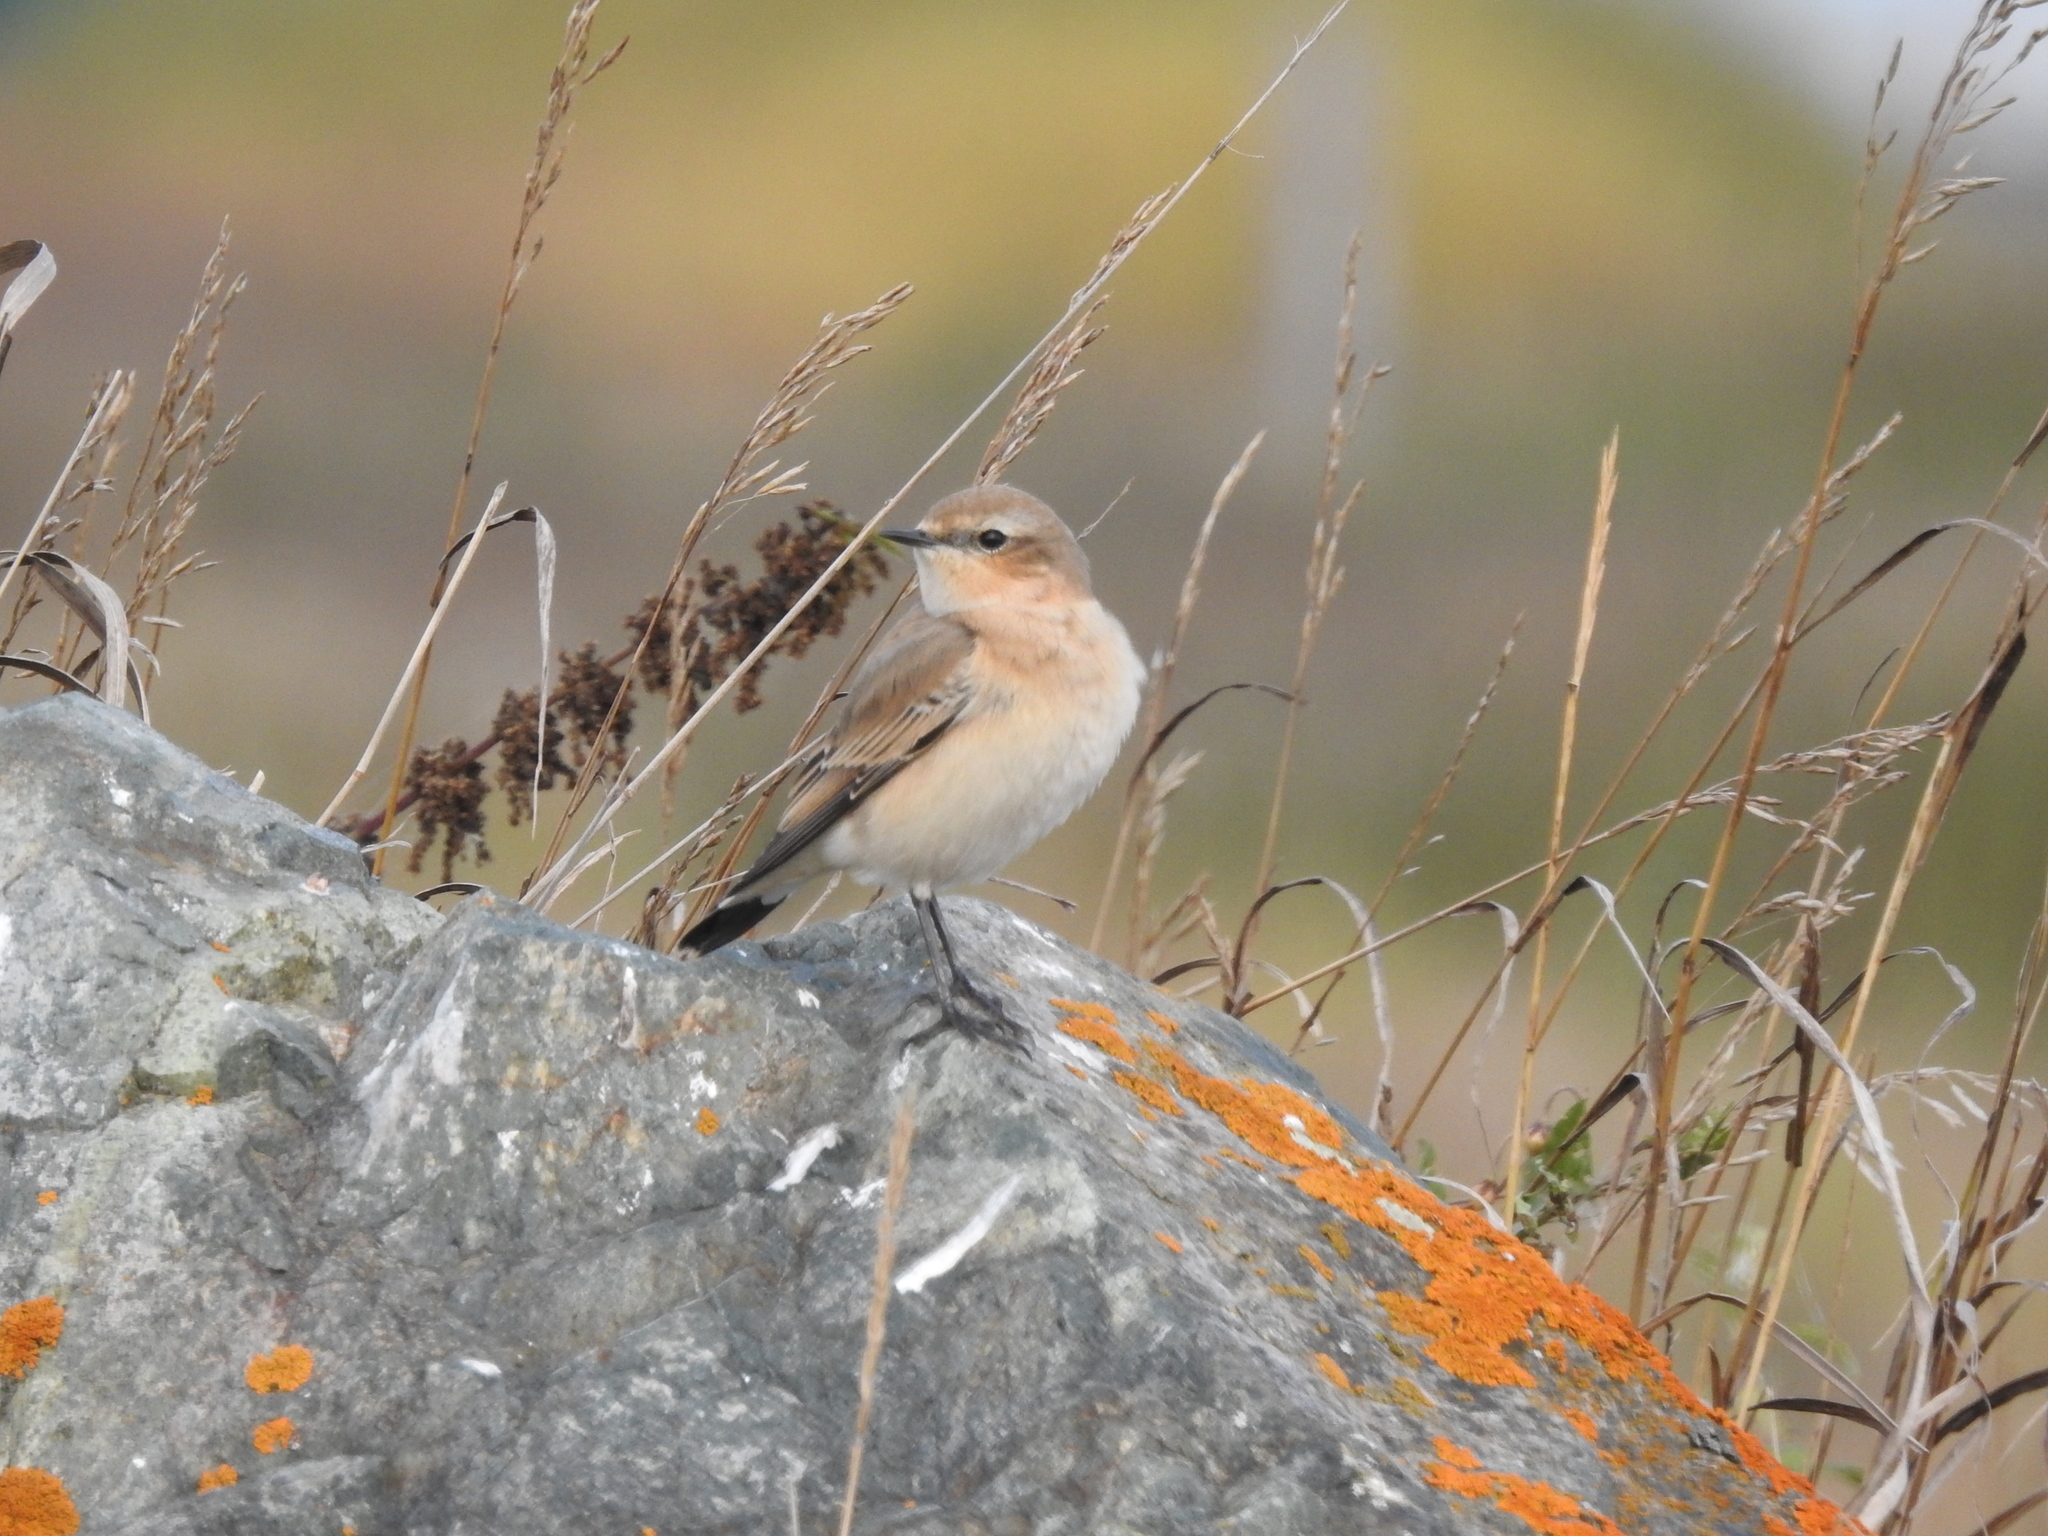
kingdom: Animalia
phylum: Chordata
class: Aves
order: Passeriformes
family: Muscicapidae
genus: Oenanthe
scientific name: Oenanthe oenanthe
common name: Northern wheatear
